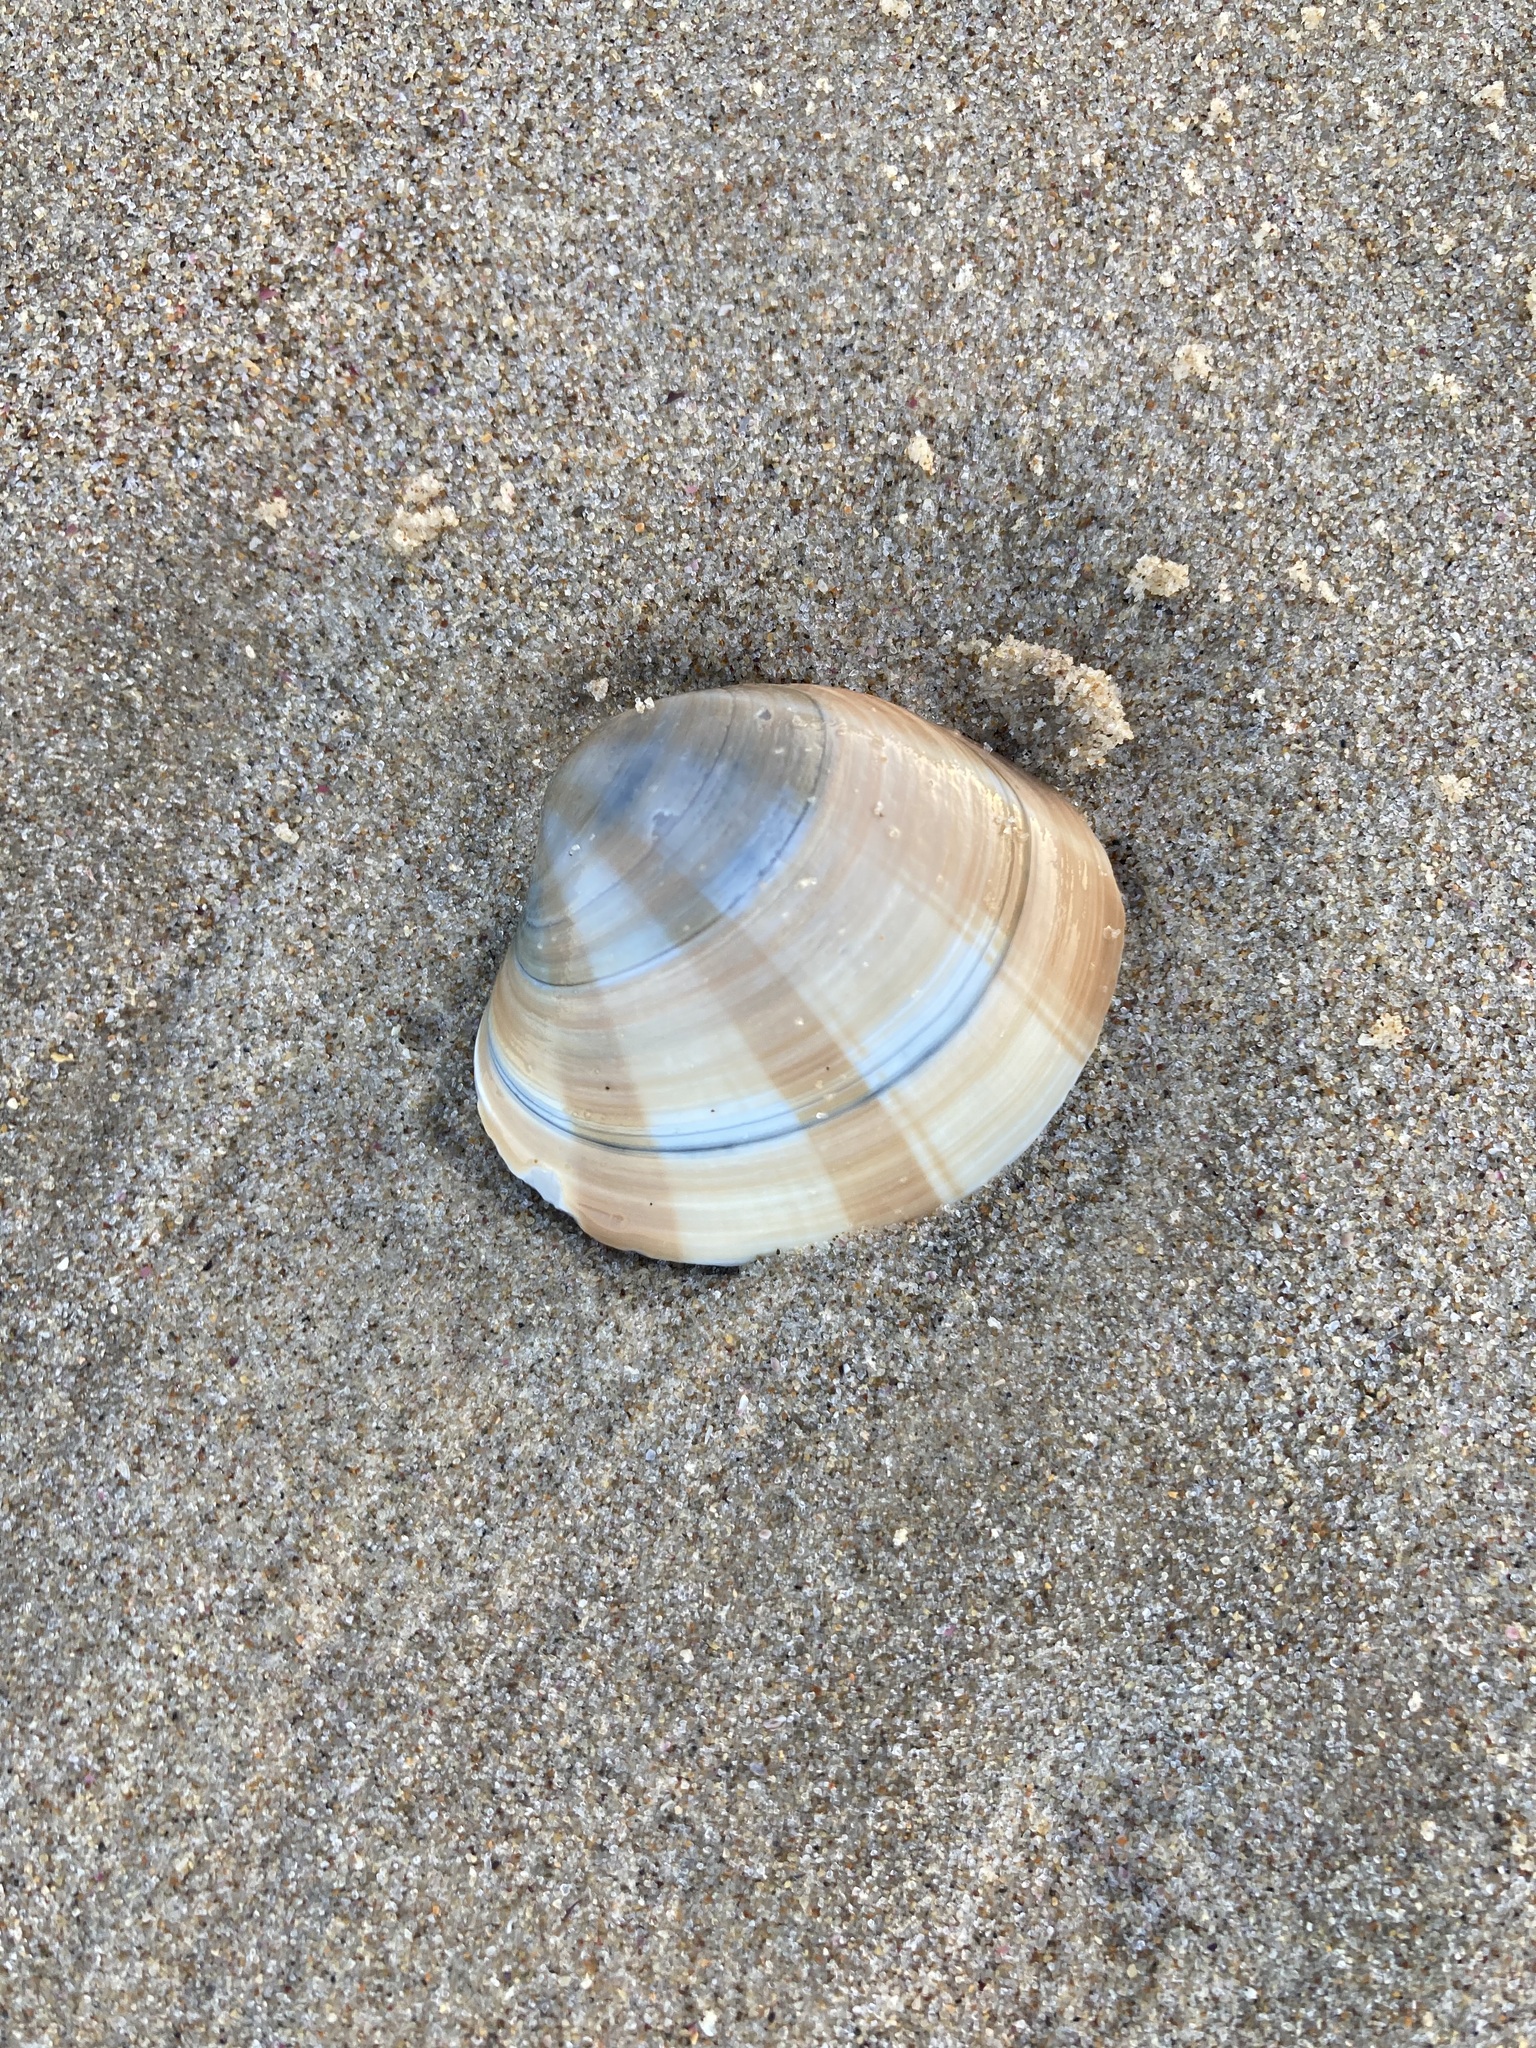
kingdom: Animalia
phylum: Mollusca
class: Bivalvia
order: Venerida
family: Veneridae
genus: Bassina
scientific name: Bassina pachyphylla
